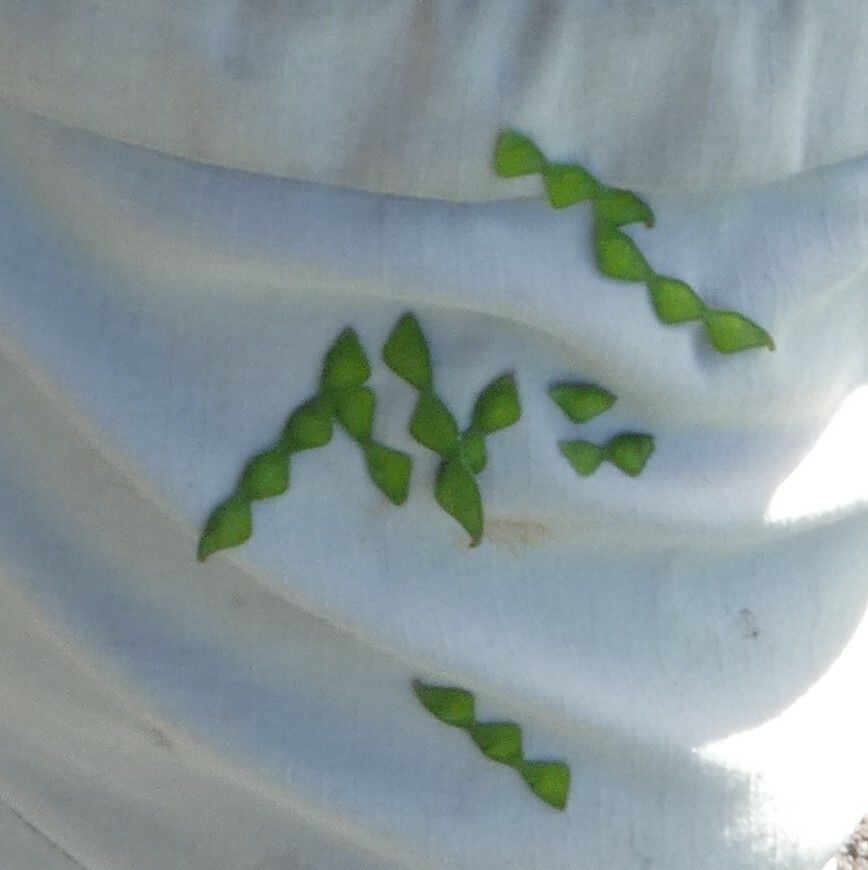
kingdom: Plantae
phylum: Tracheophyta
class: Magnoliopsida
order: Fabales
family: Fabaceae
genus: Desmodium
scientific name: Desmodium
